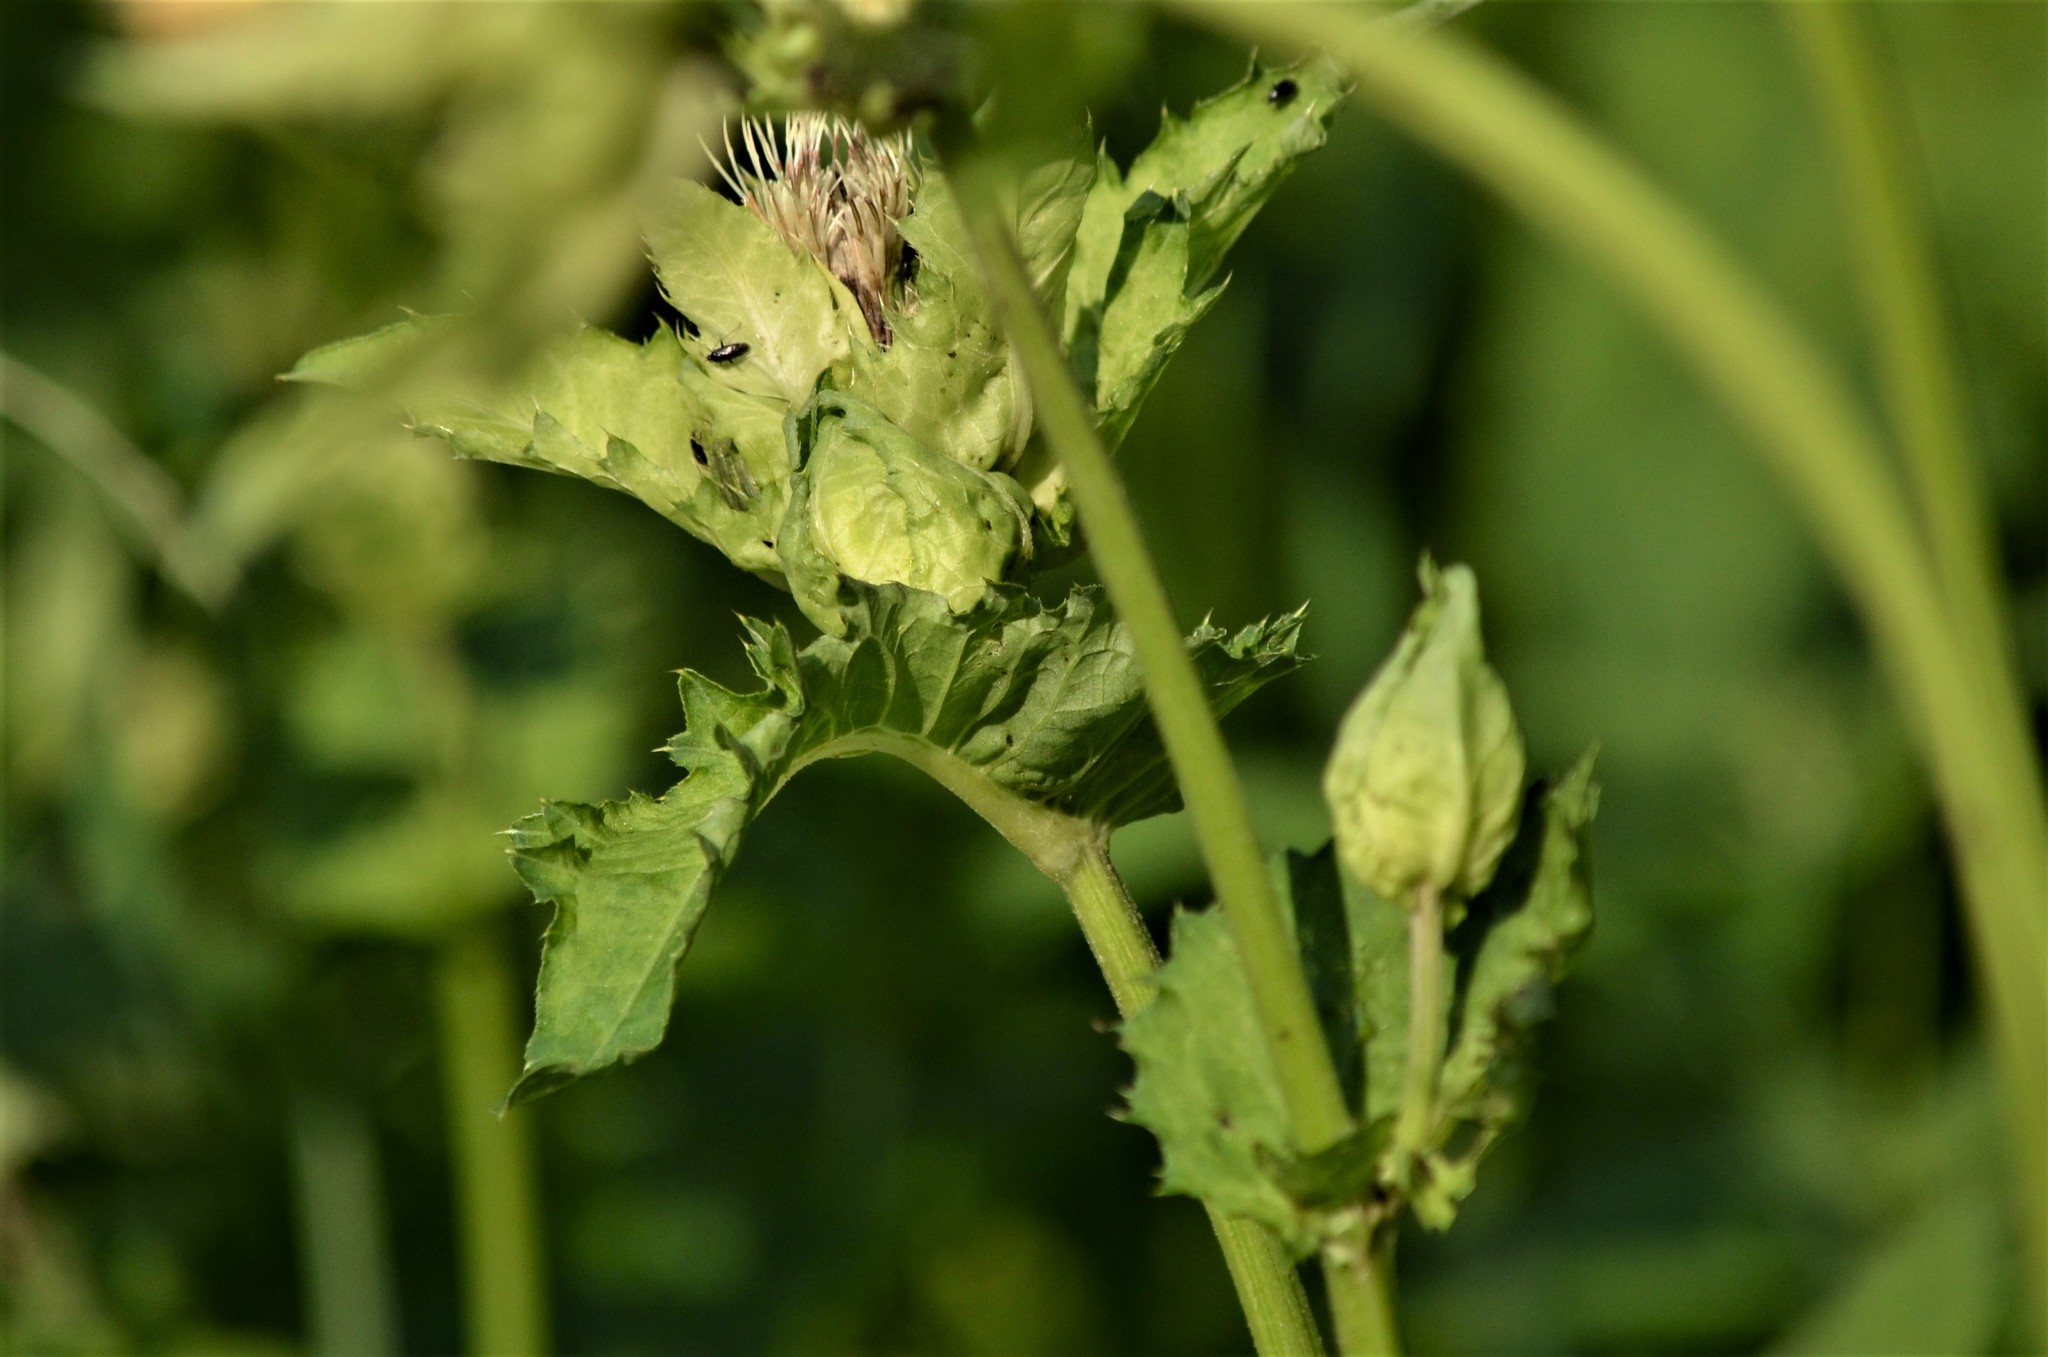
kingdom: Plantae
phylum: Tracheophyta
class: Magnoliopsida
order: Asterales
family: Asteraceae
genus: Cirsium
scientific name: Cirsium oleraceum
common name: Cabbage thistle
